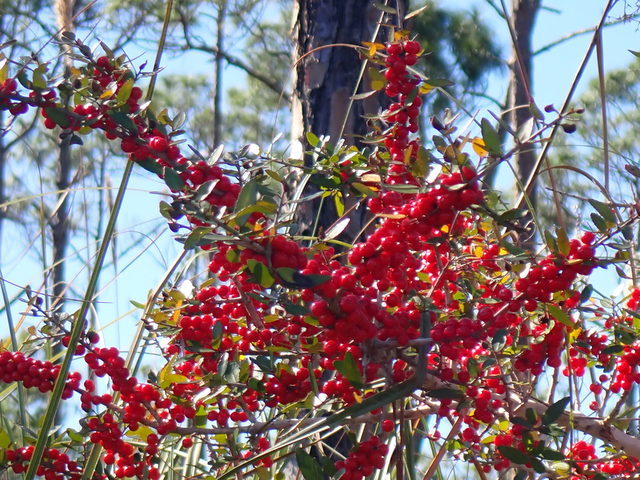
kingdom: Plantae
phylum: Tracheophyta
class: Magnoliopsida
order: Aquifoliales
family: Aquifoliaceae
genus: Ilex
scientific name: Ilex vomitoria
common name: Yaupon holly
